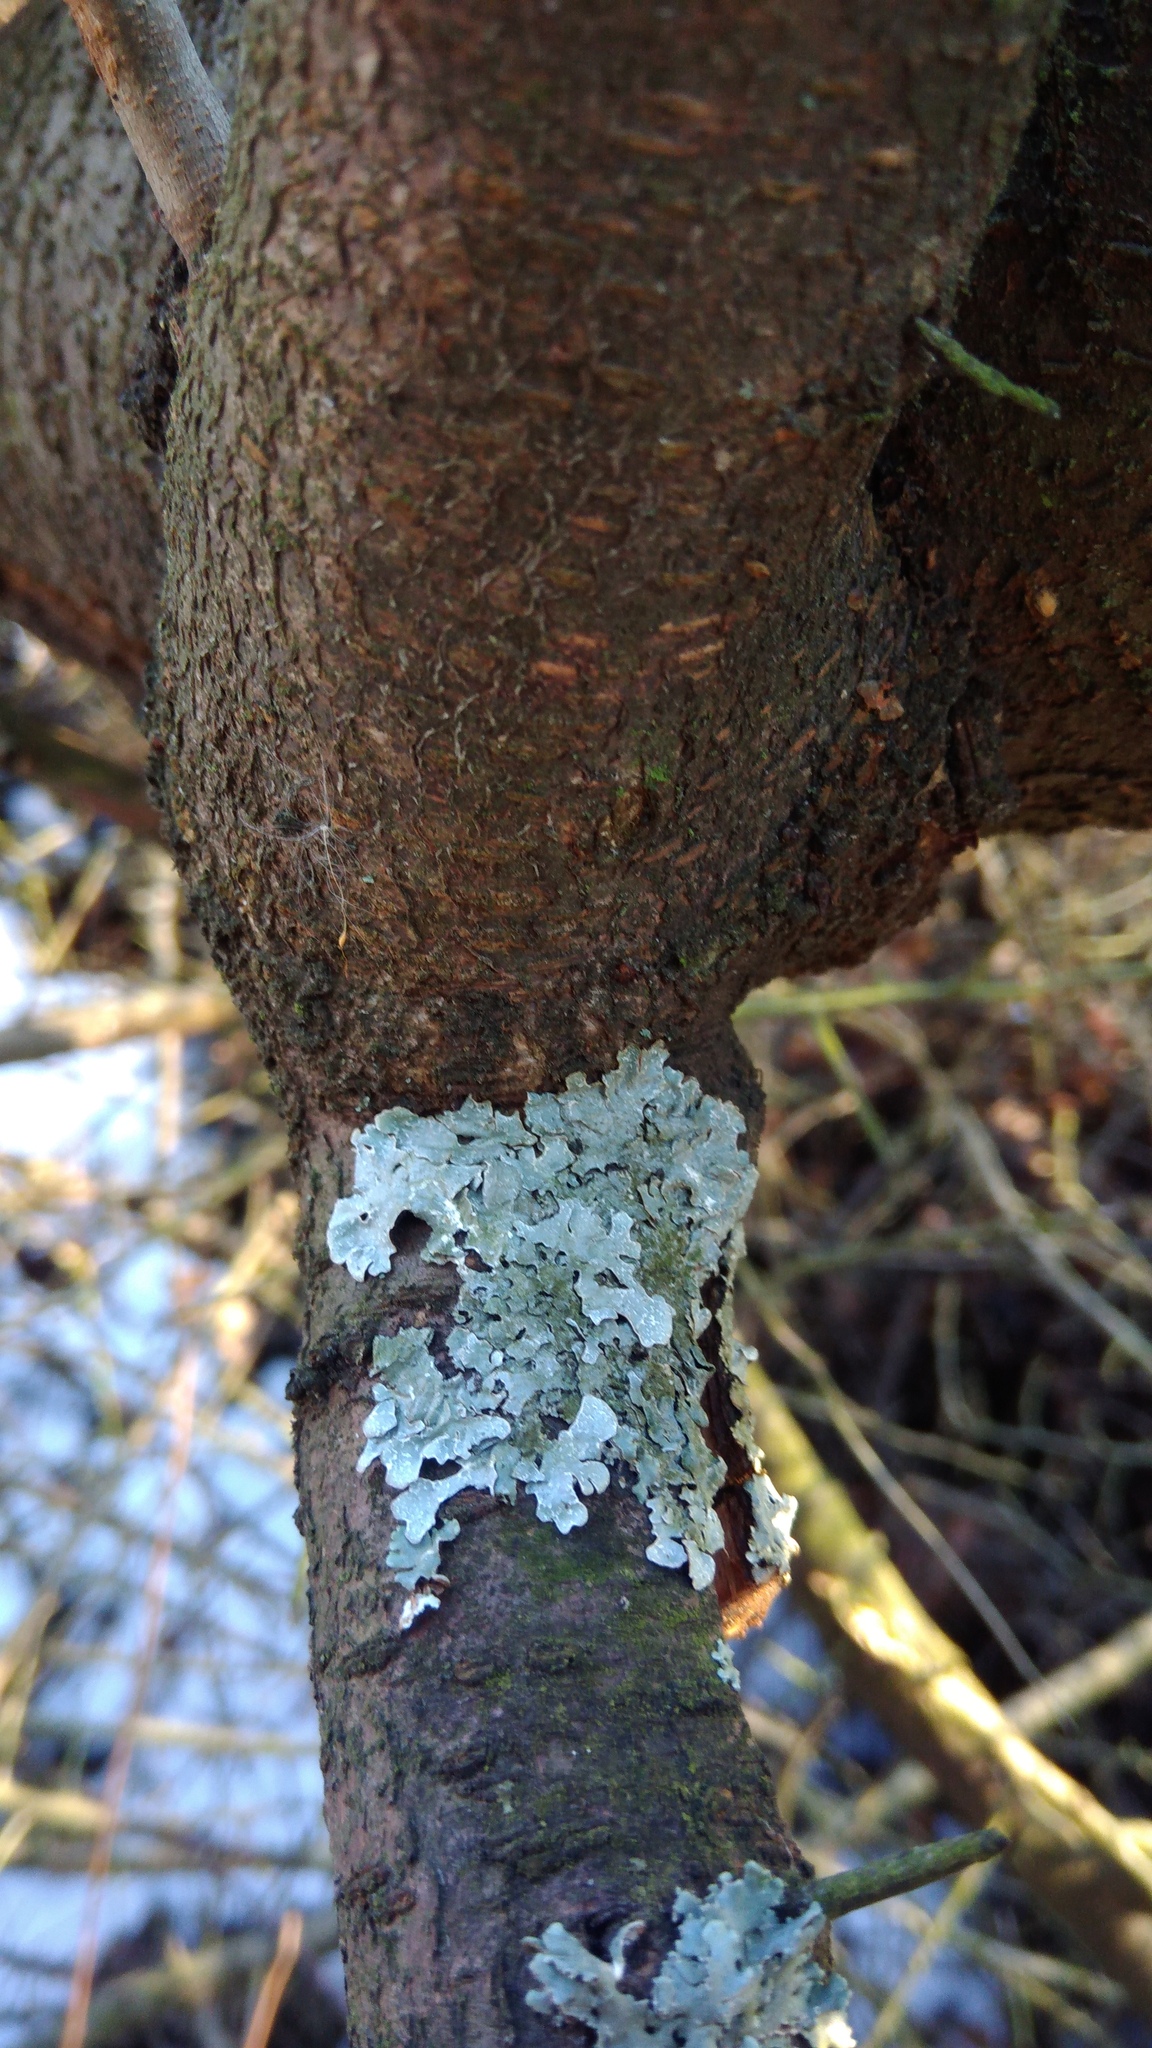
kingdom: Fungi
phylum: Ascomycota
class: Lecanoromycetes
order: Lecanorales
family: Parmeliaceae
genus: Parmelia
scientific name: Parmelia sulcata
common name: Netted shield lichen
